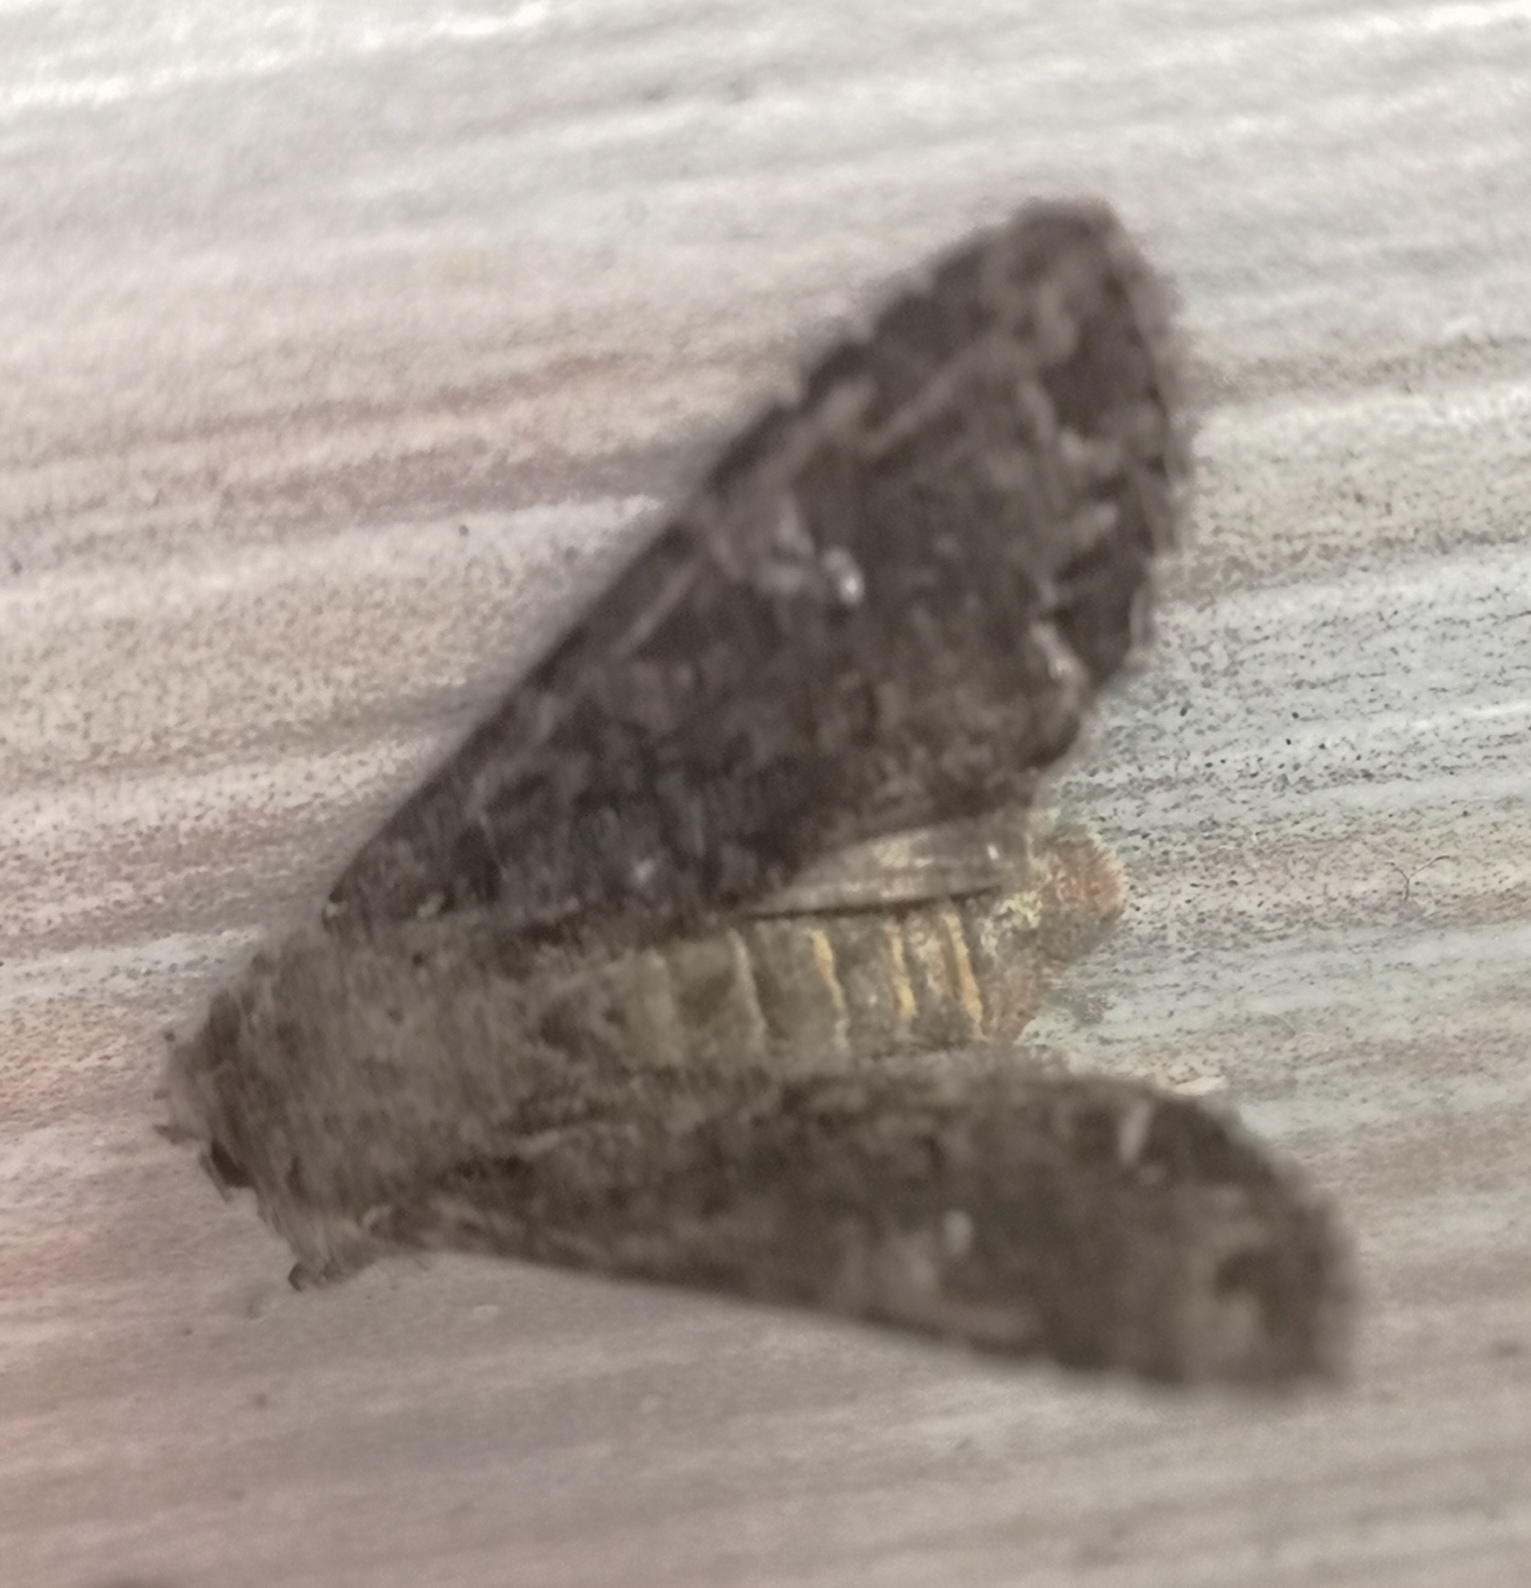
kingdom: Animalia
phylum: Arthropoda
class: Insecta
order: Lepidoptera
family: Noctuidae
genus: Mamestra
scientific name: Mamestra brassicae
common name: Cabbage moth
